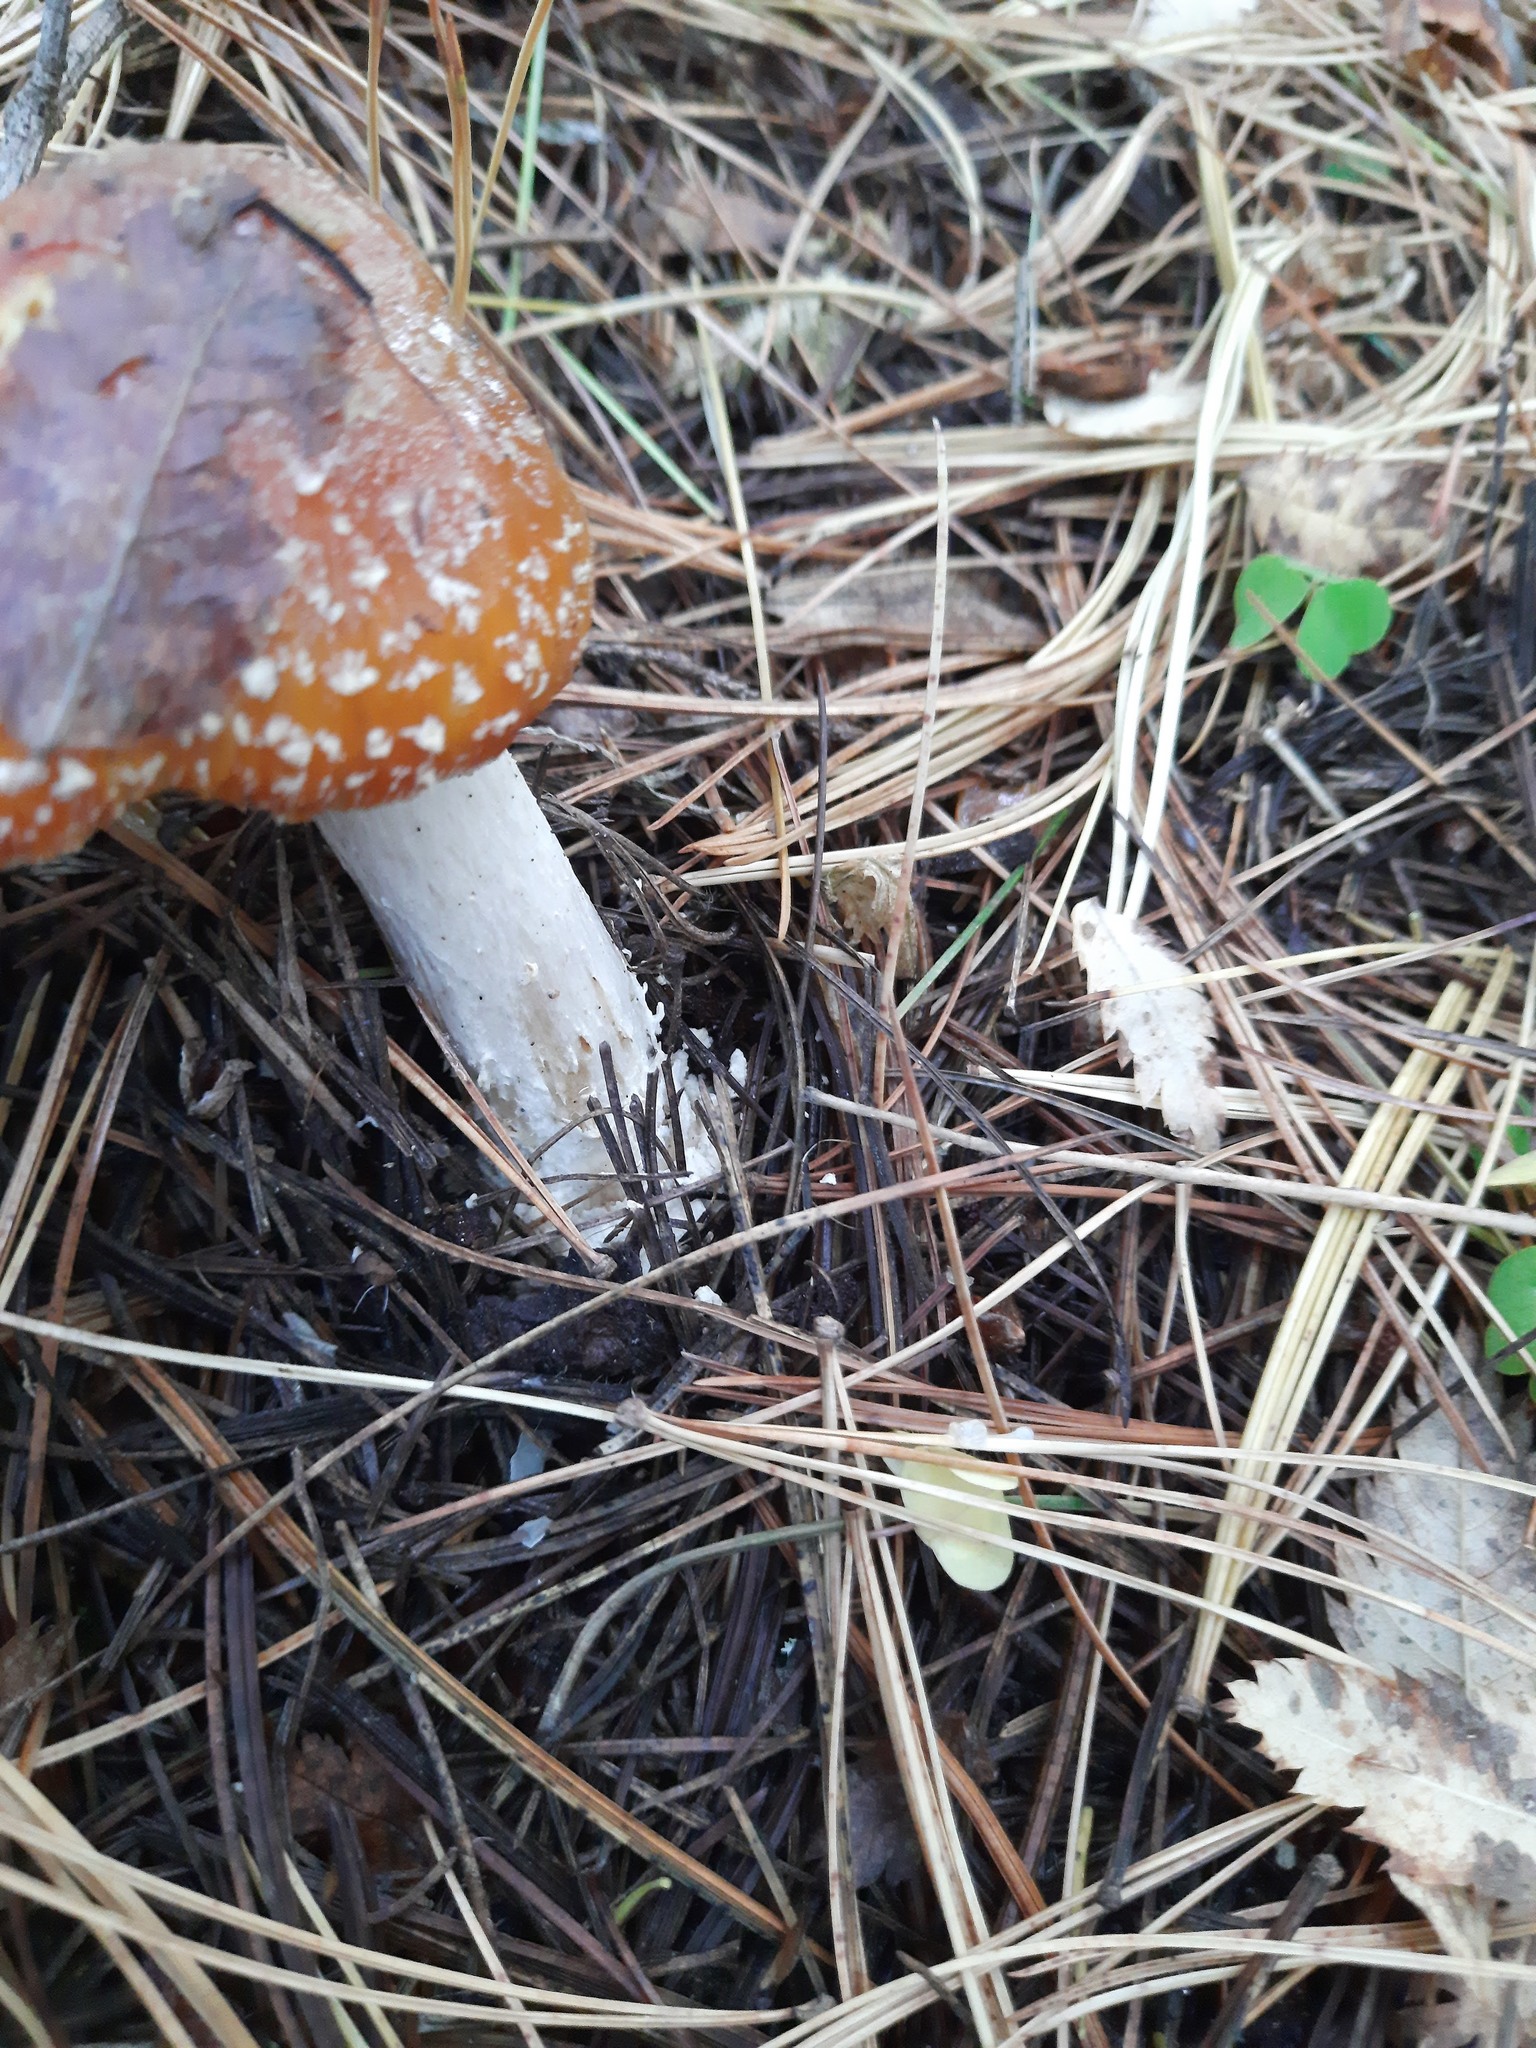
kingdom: Fungi
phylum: Basidiomycota
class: Agaricomycetes
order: Agaricales
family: Amanitaceae
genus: Amanita
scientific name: Amanita muscaria
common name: Fly agaric
